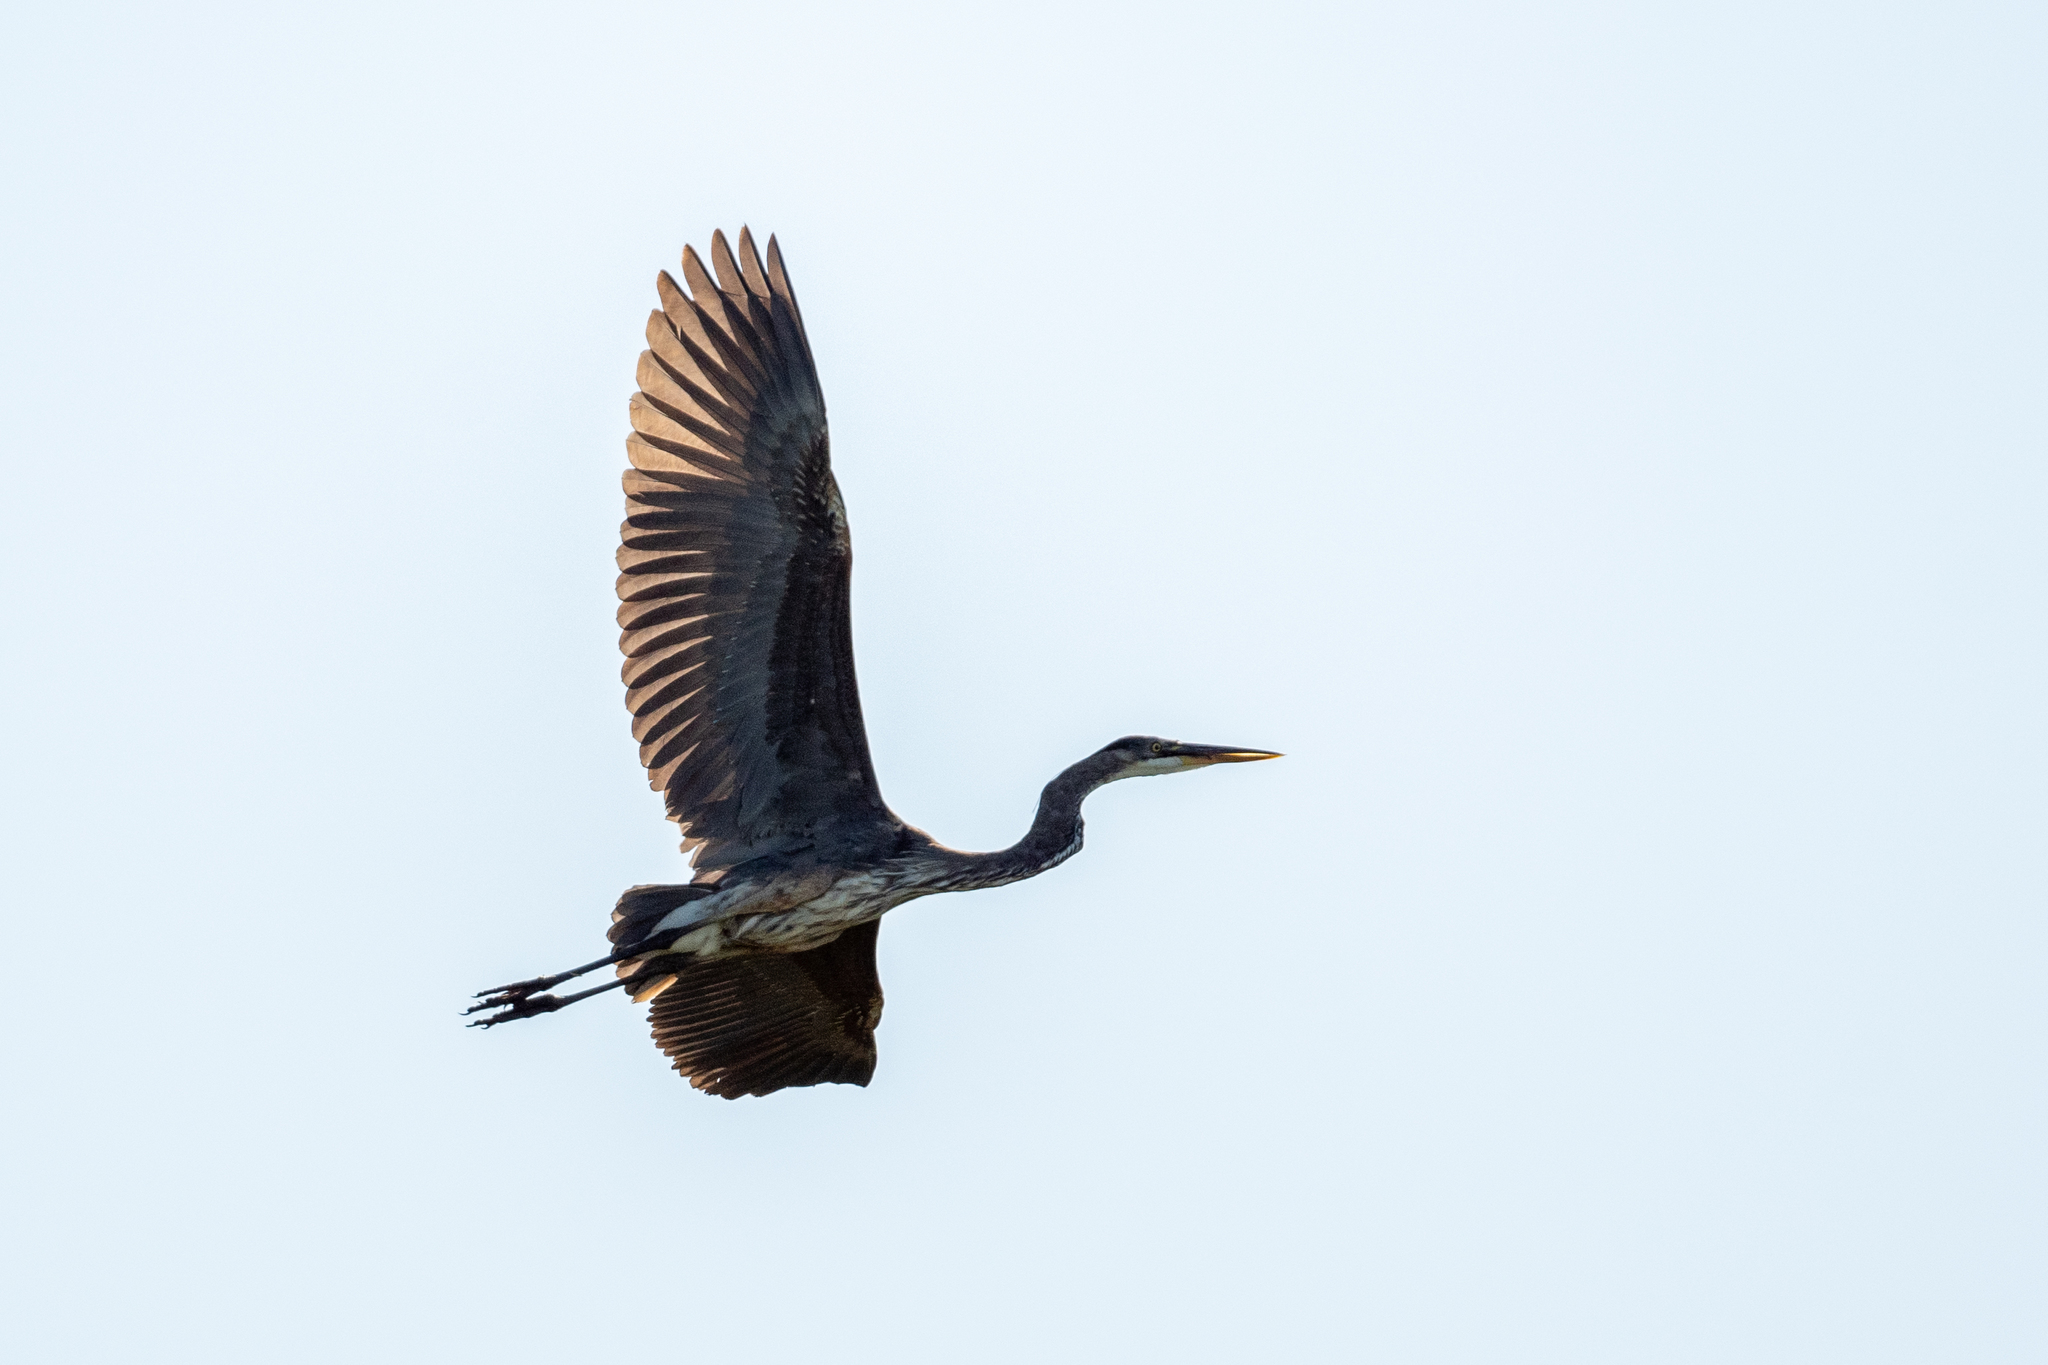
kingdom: Animalia
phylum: Chordata
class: Aves
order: Pelecaniformes
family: Ardeidae
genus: Ardea
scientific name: Ardea herodias
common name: Great blue heron
